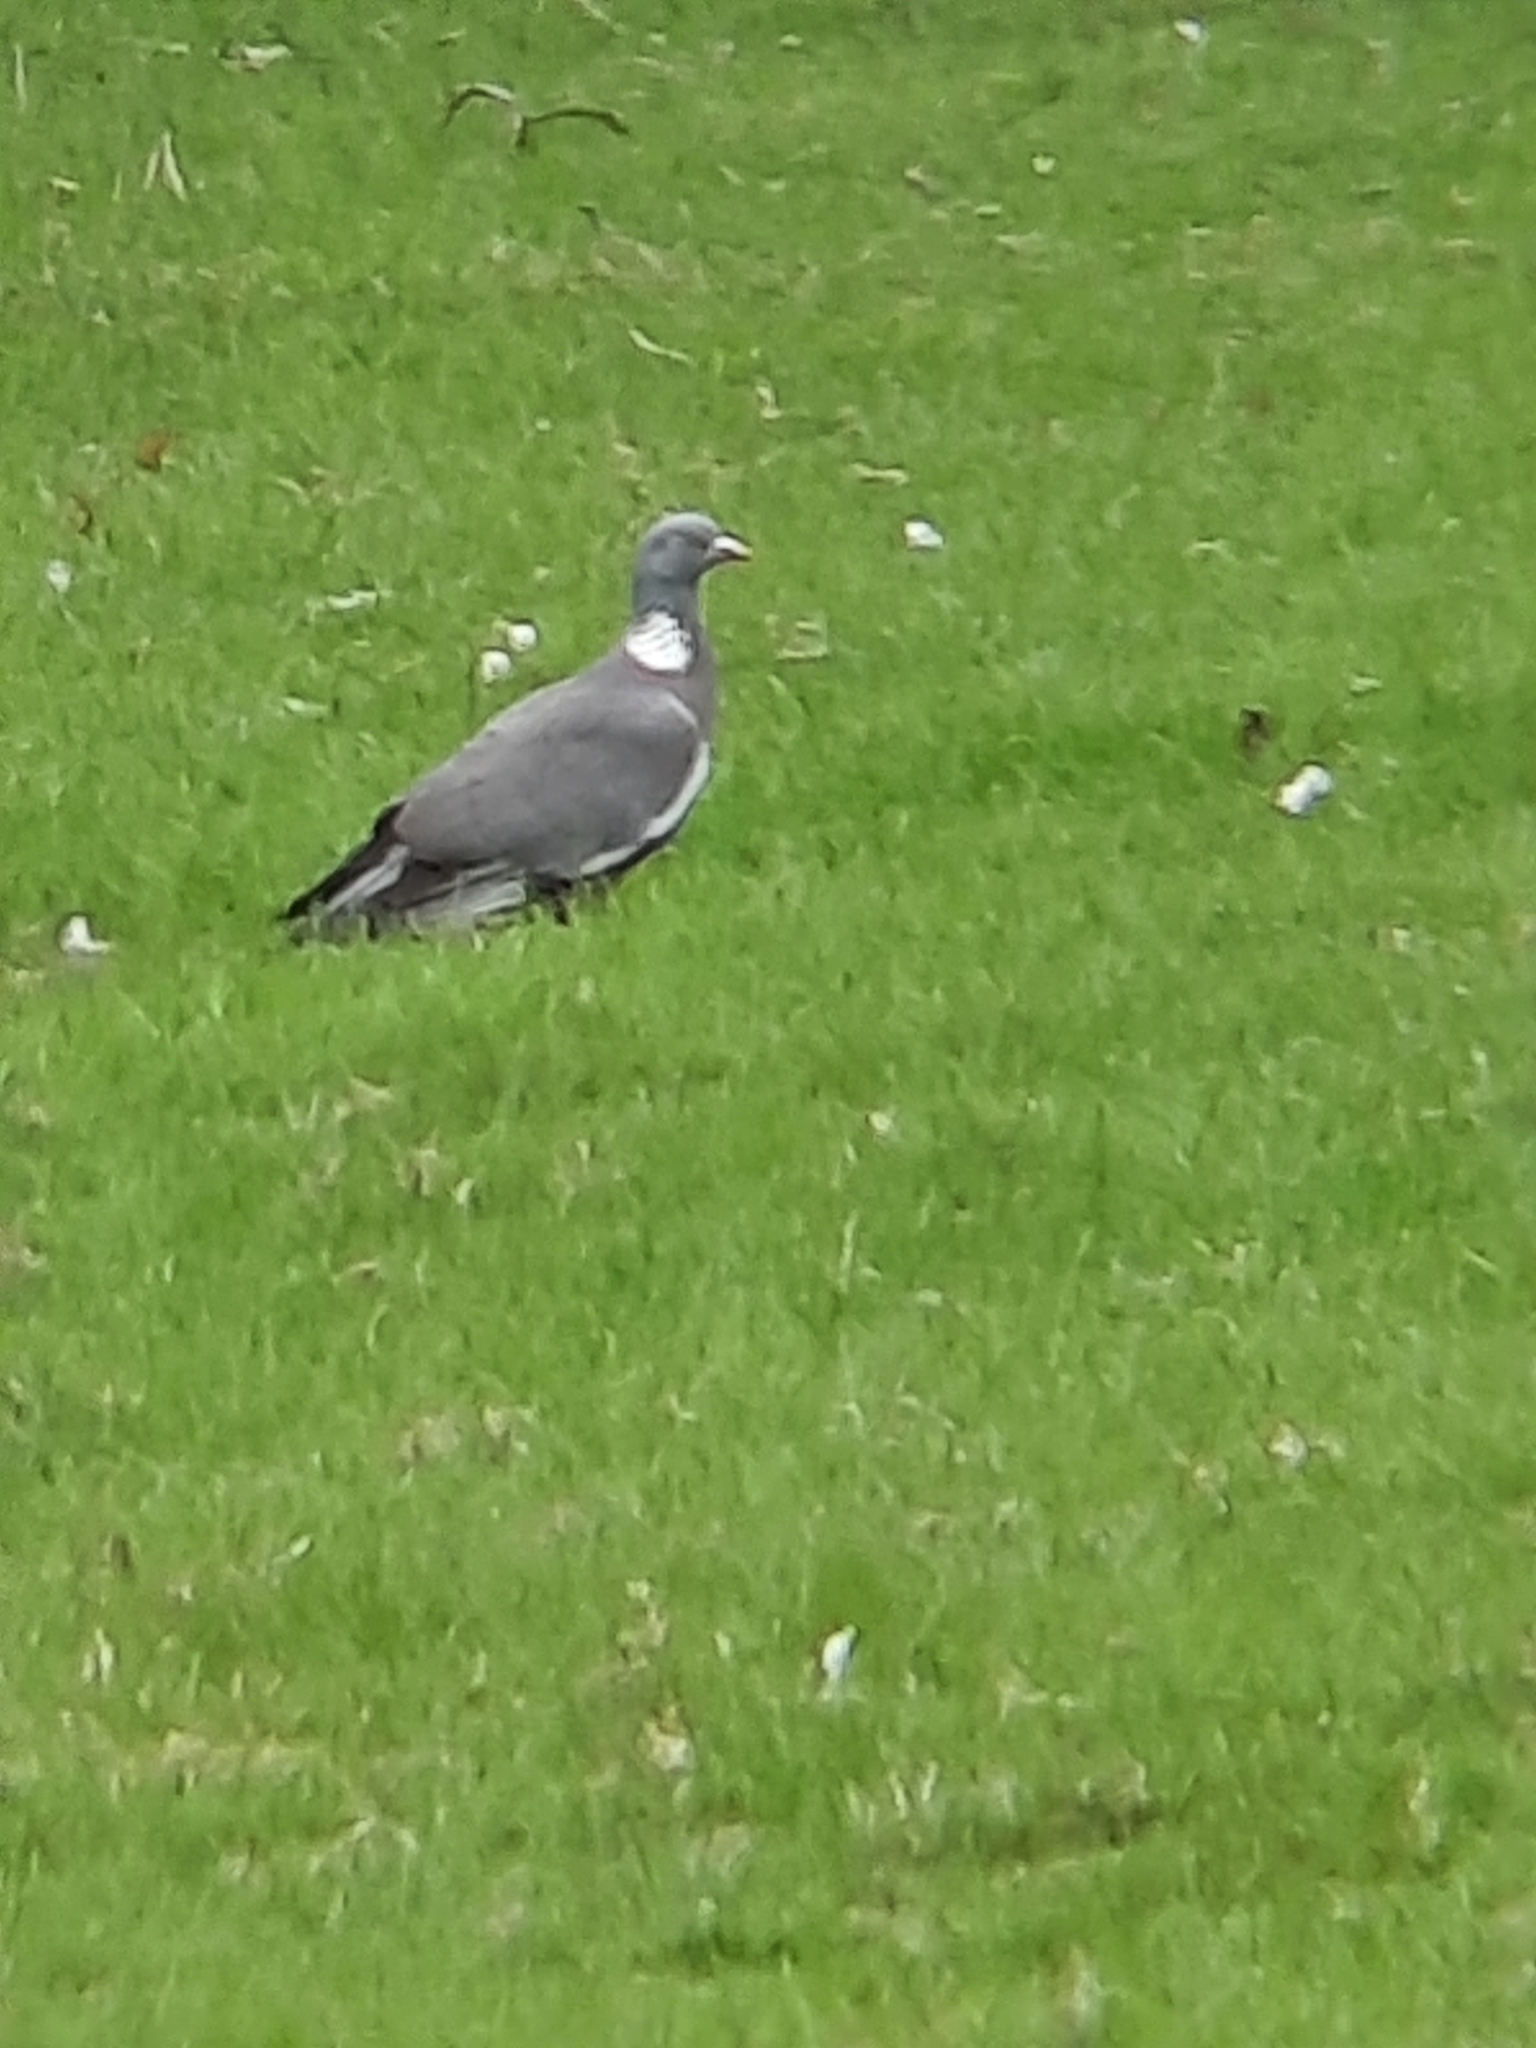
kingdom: Animalia
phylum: Chordata
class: Aves
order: Columbiformes
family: Columbidae
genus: Columba
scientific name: Columba palumbus
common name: Common wood pigeon
